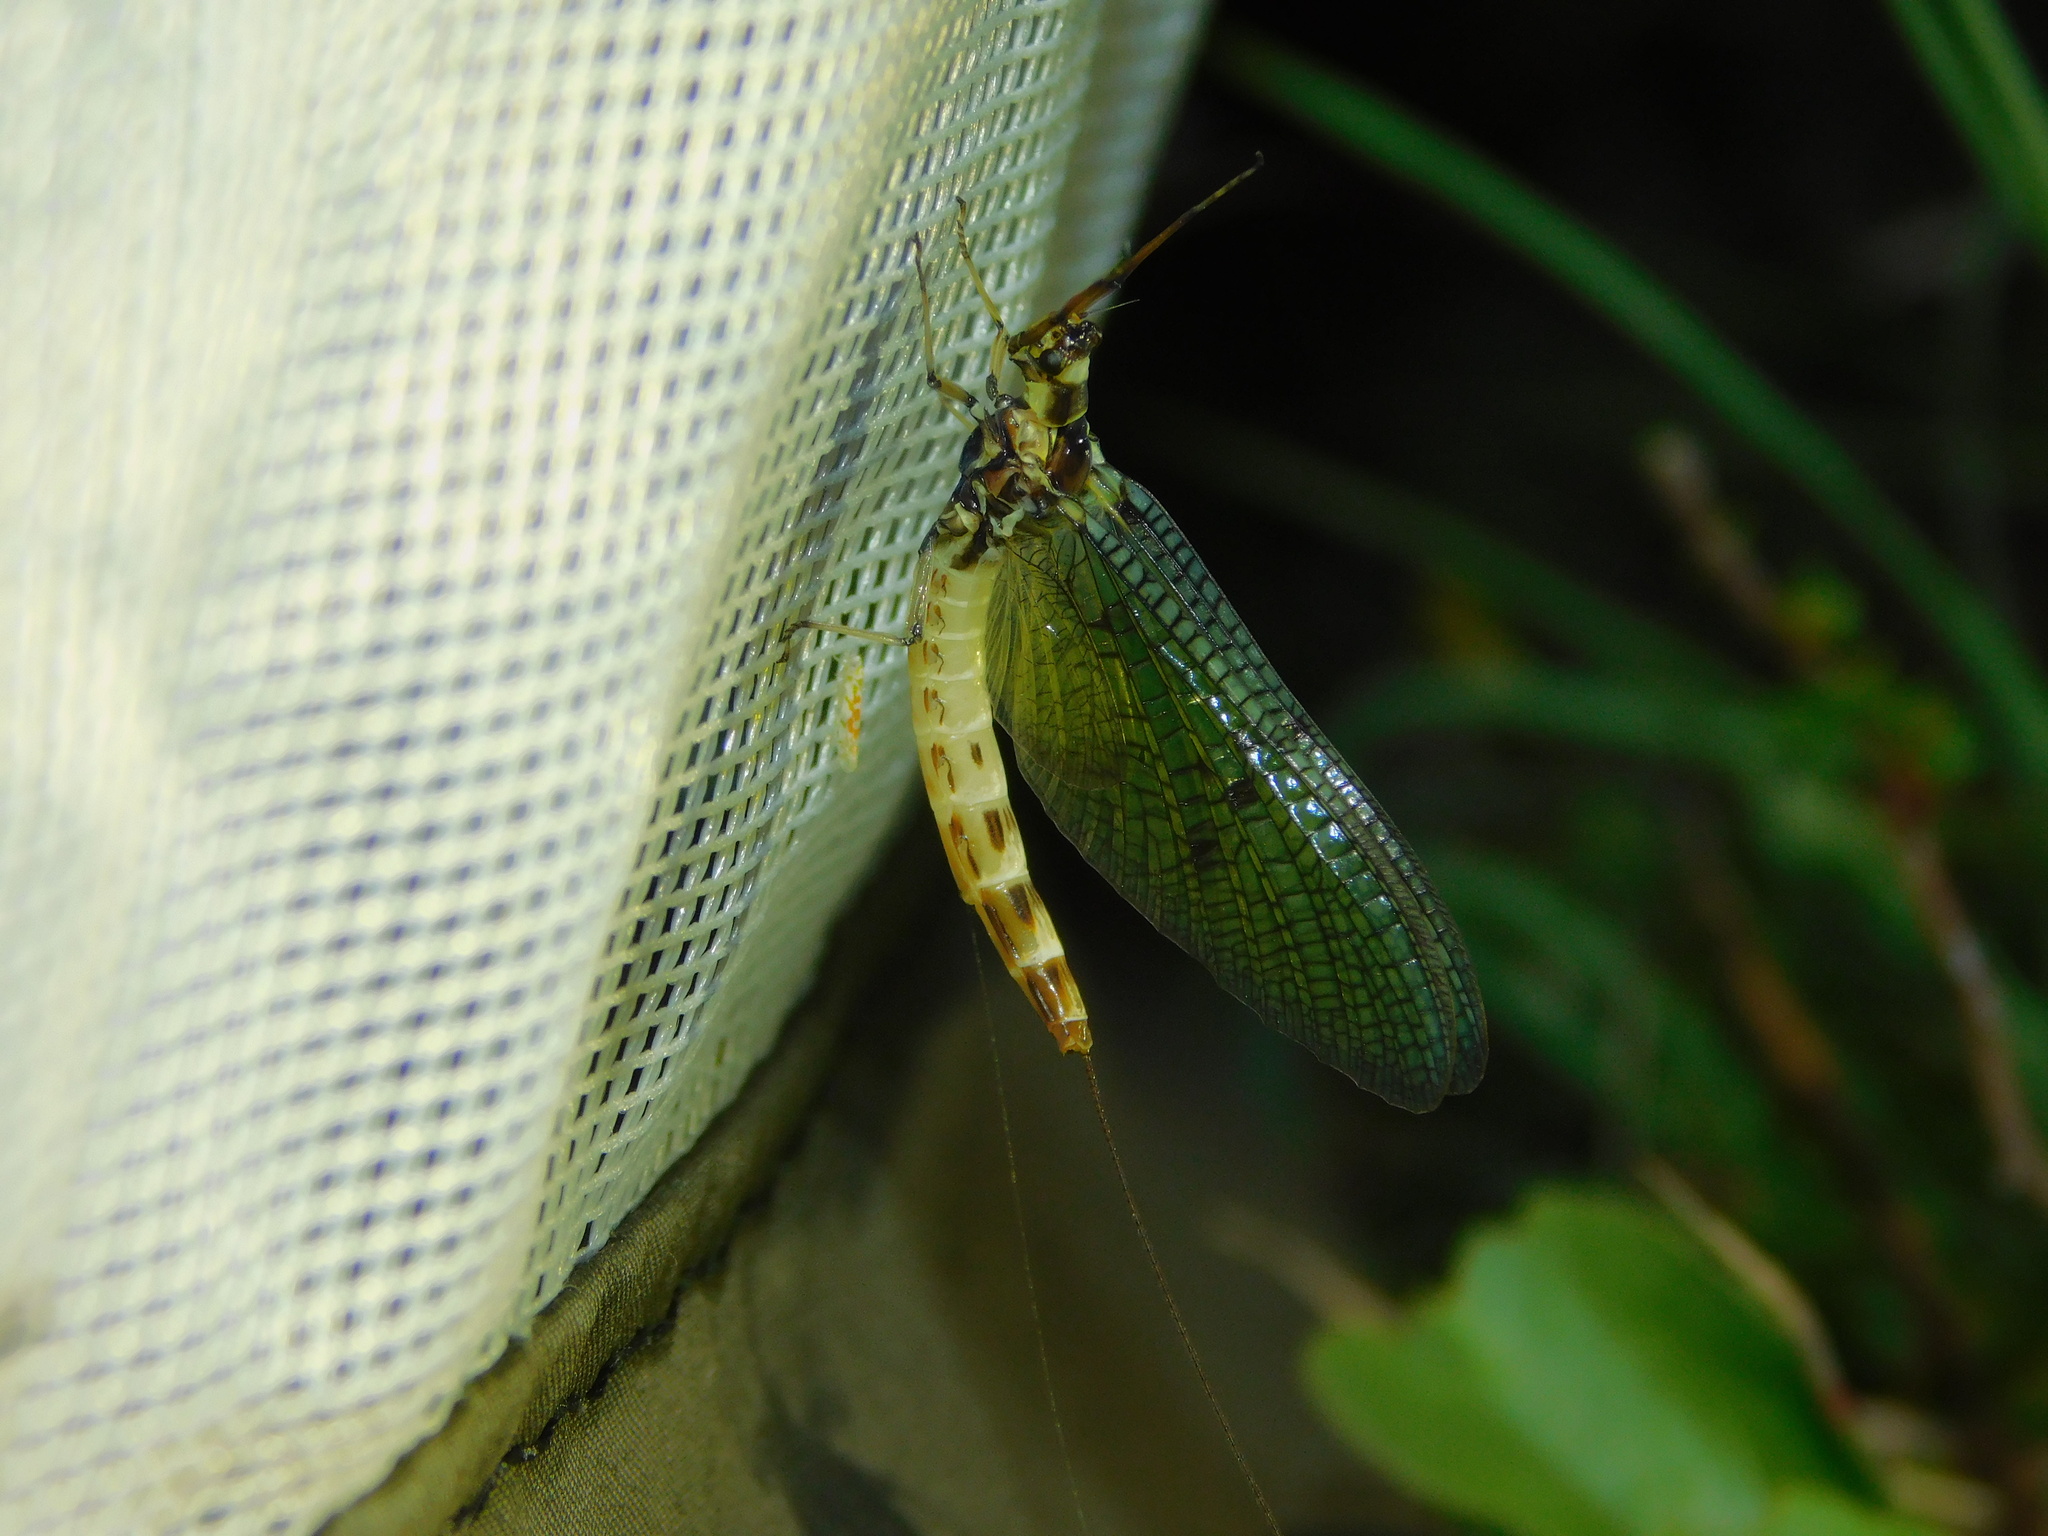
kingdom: Animalia
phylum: Arthropoda
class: Insecta
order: Ephemeroptera
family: Ephemeridae
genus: Ephemera
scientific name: Ephemera danica
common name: Green dun
